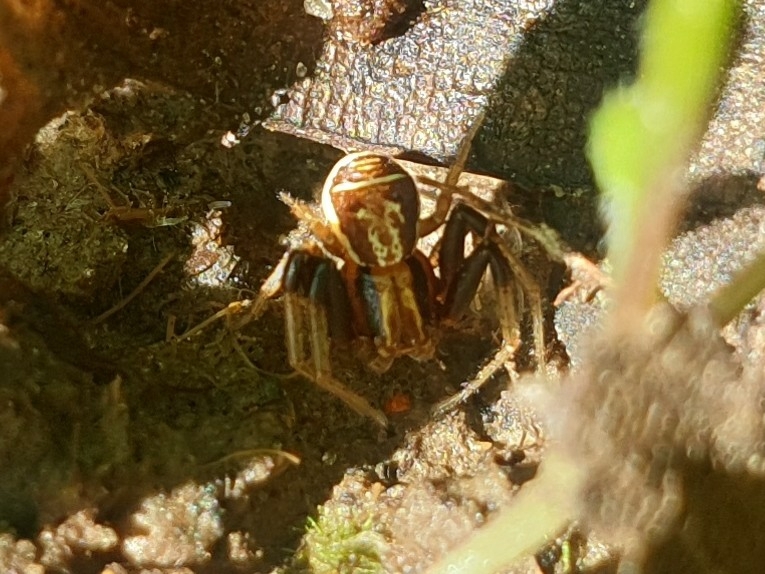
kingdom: Animalia
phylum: Arthropoda
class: Arachnida
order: Araneae
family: Thomisidae
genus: Xysticus
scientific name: Xysticus ulmi
